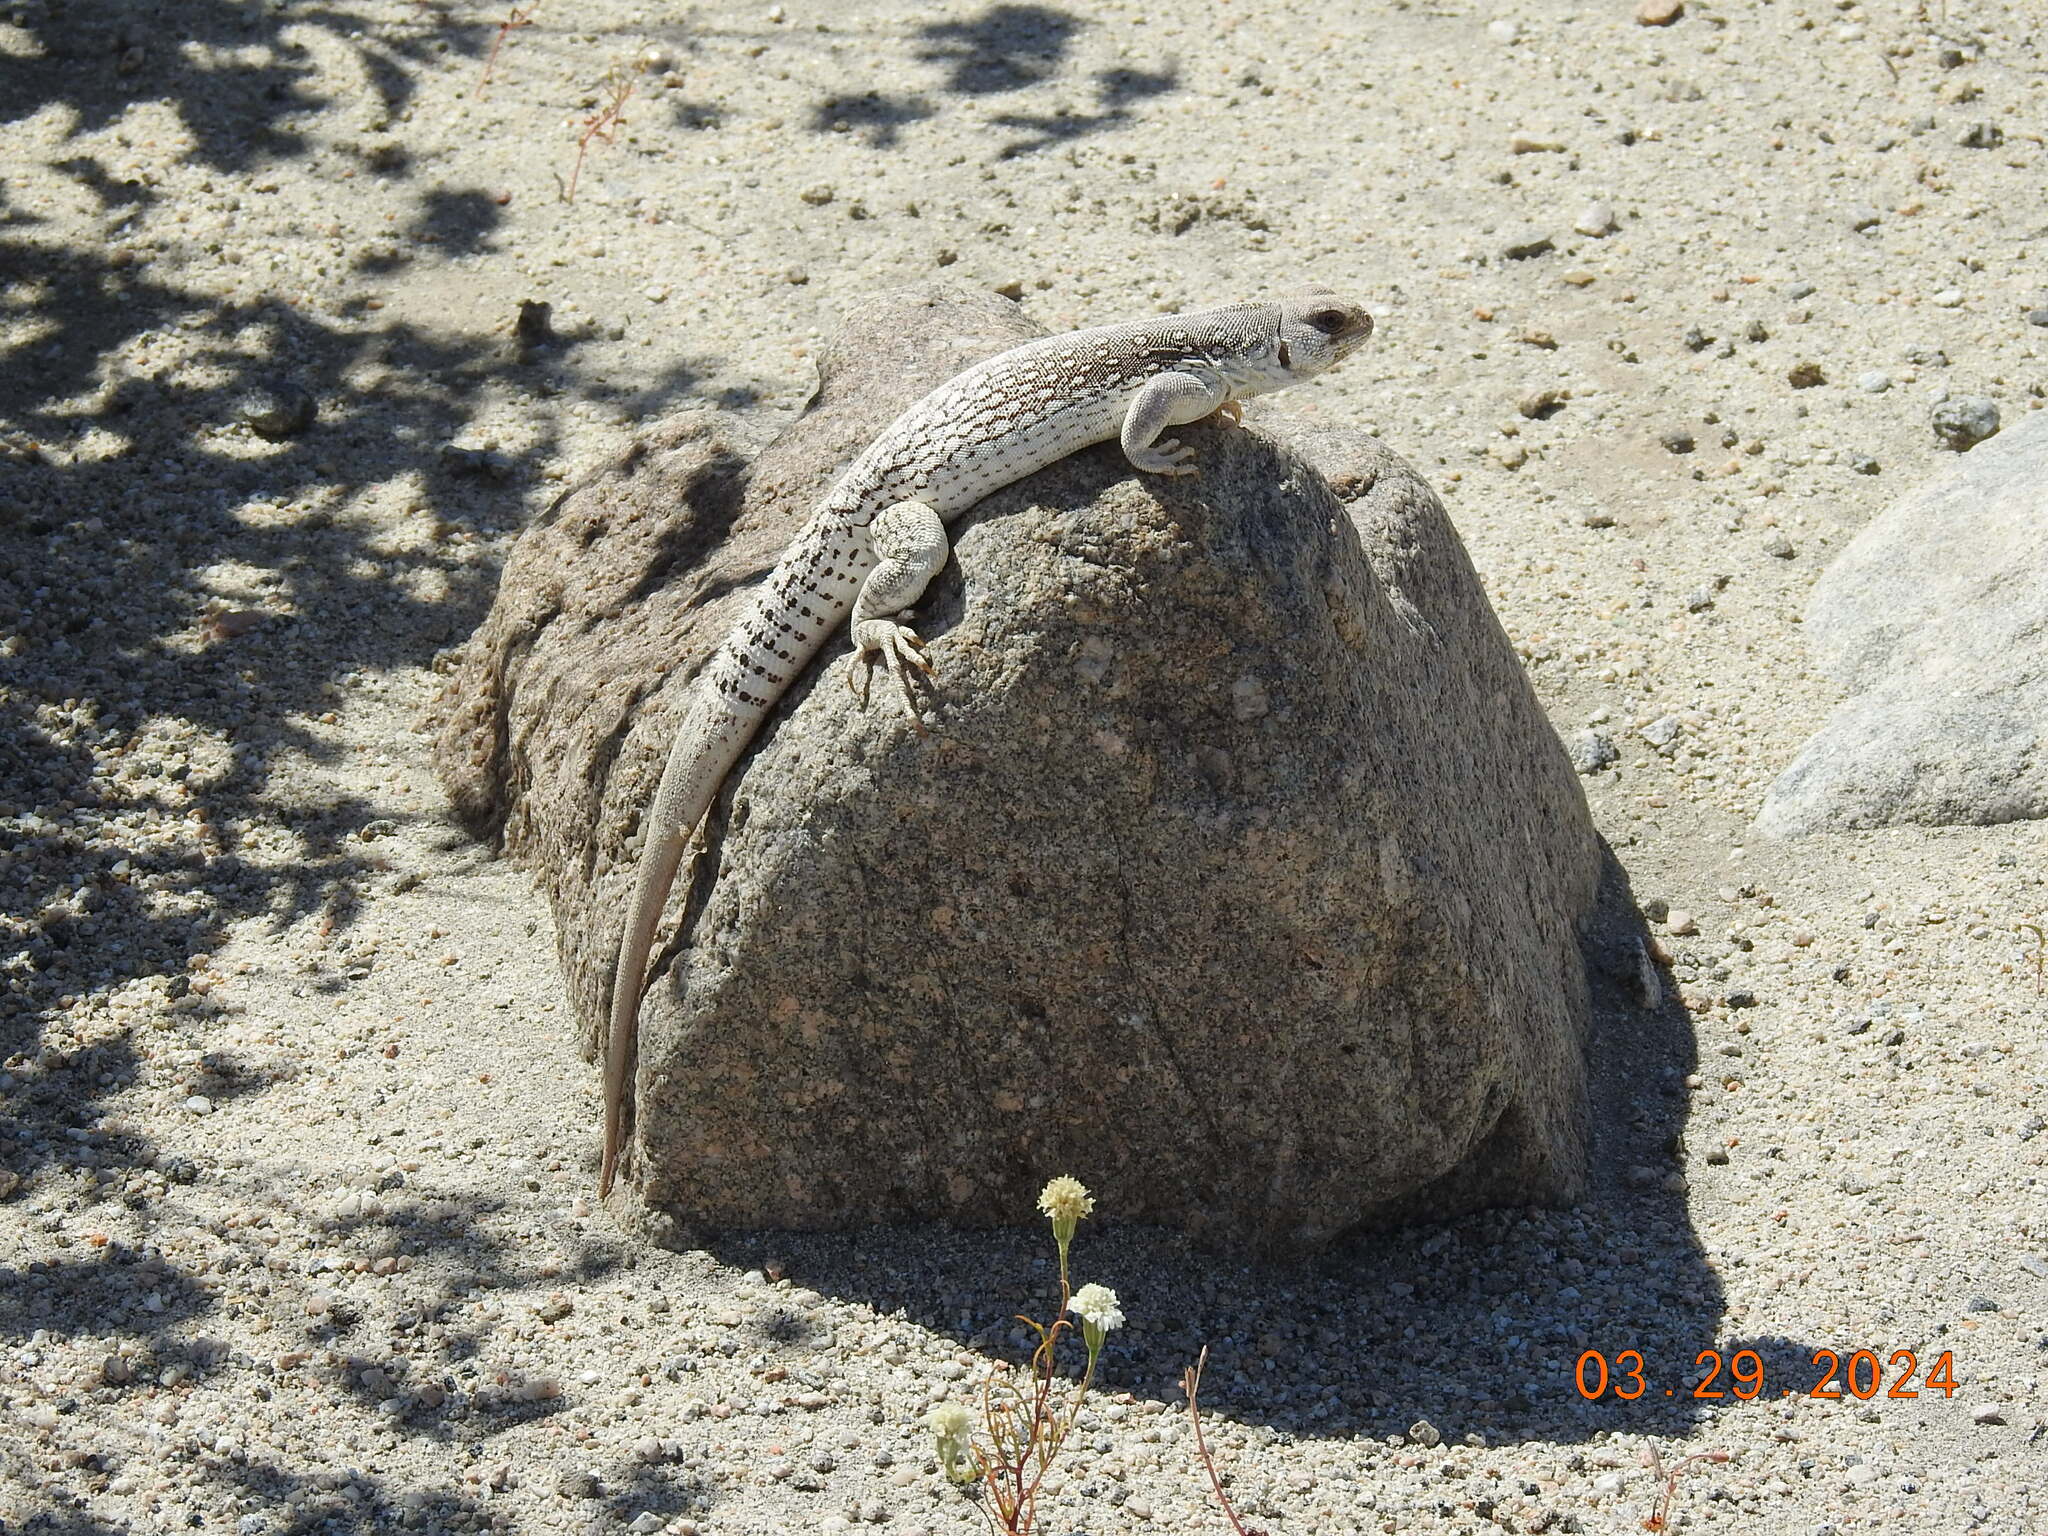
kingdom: Animalia
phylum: Chordata
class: Squamata
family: Iguanidae
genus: Dipsosaurus
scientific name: Dipsosaurus dorsalis
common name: Desert iguana
